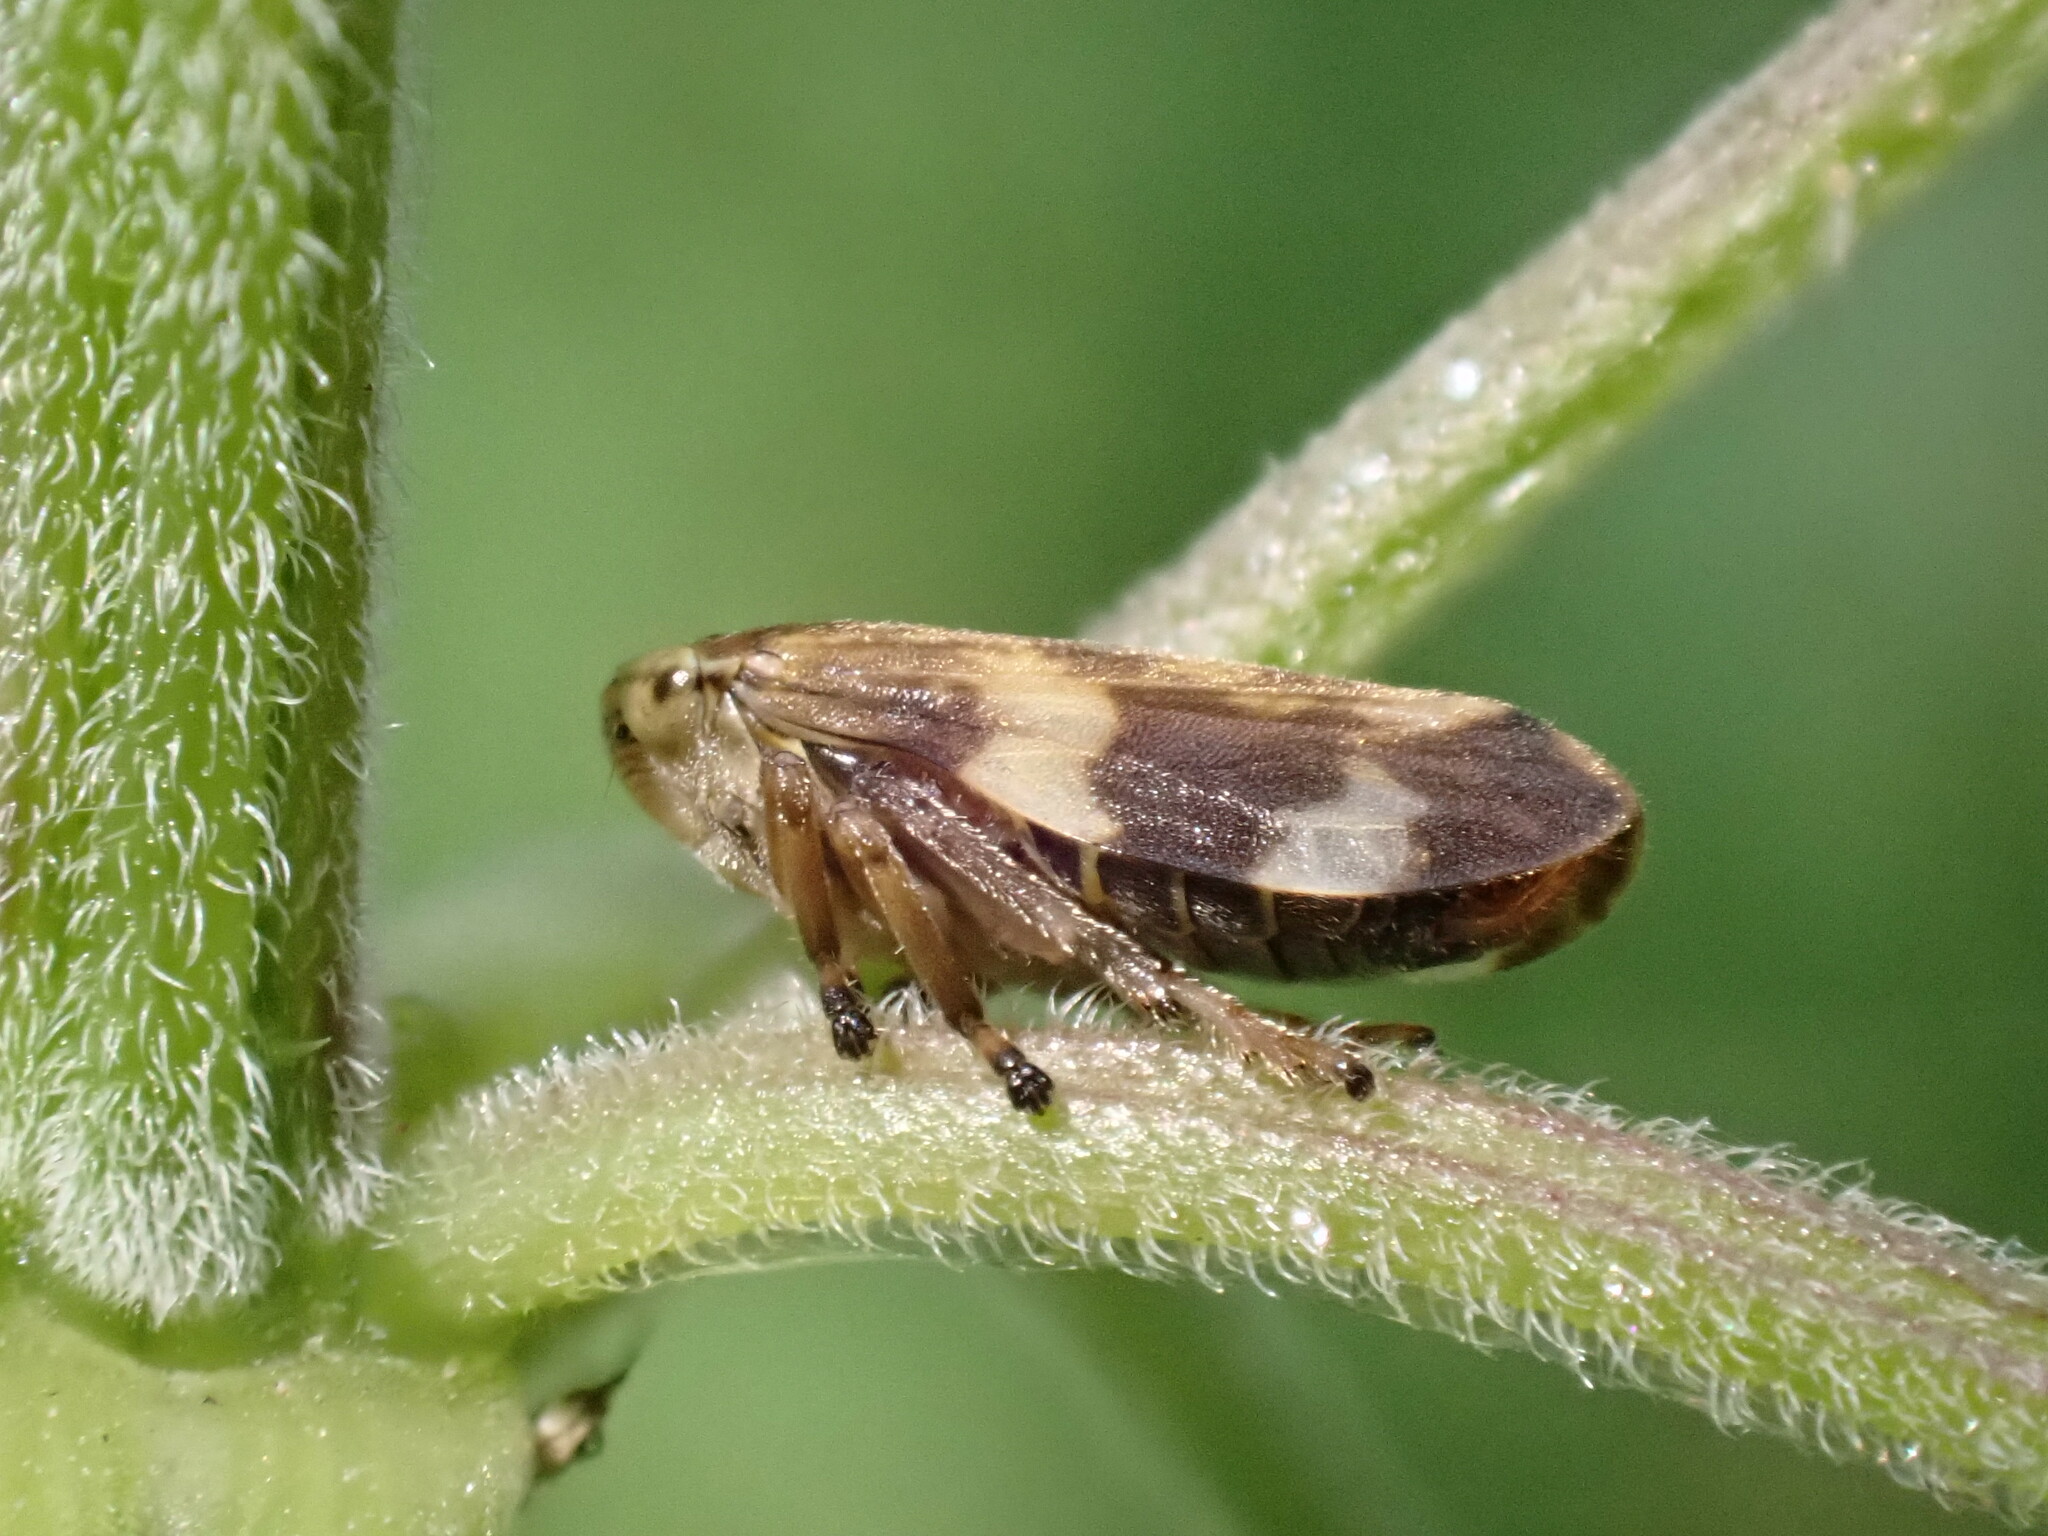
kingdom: Animalia
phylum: Arthropoda
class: Insecta
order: Hemiptera
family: Aphrophoridae
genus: Philaenus
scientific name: Philaenus spumarius
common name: Meadow spittlebug
